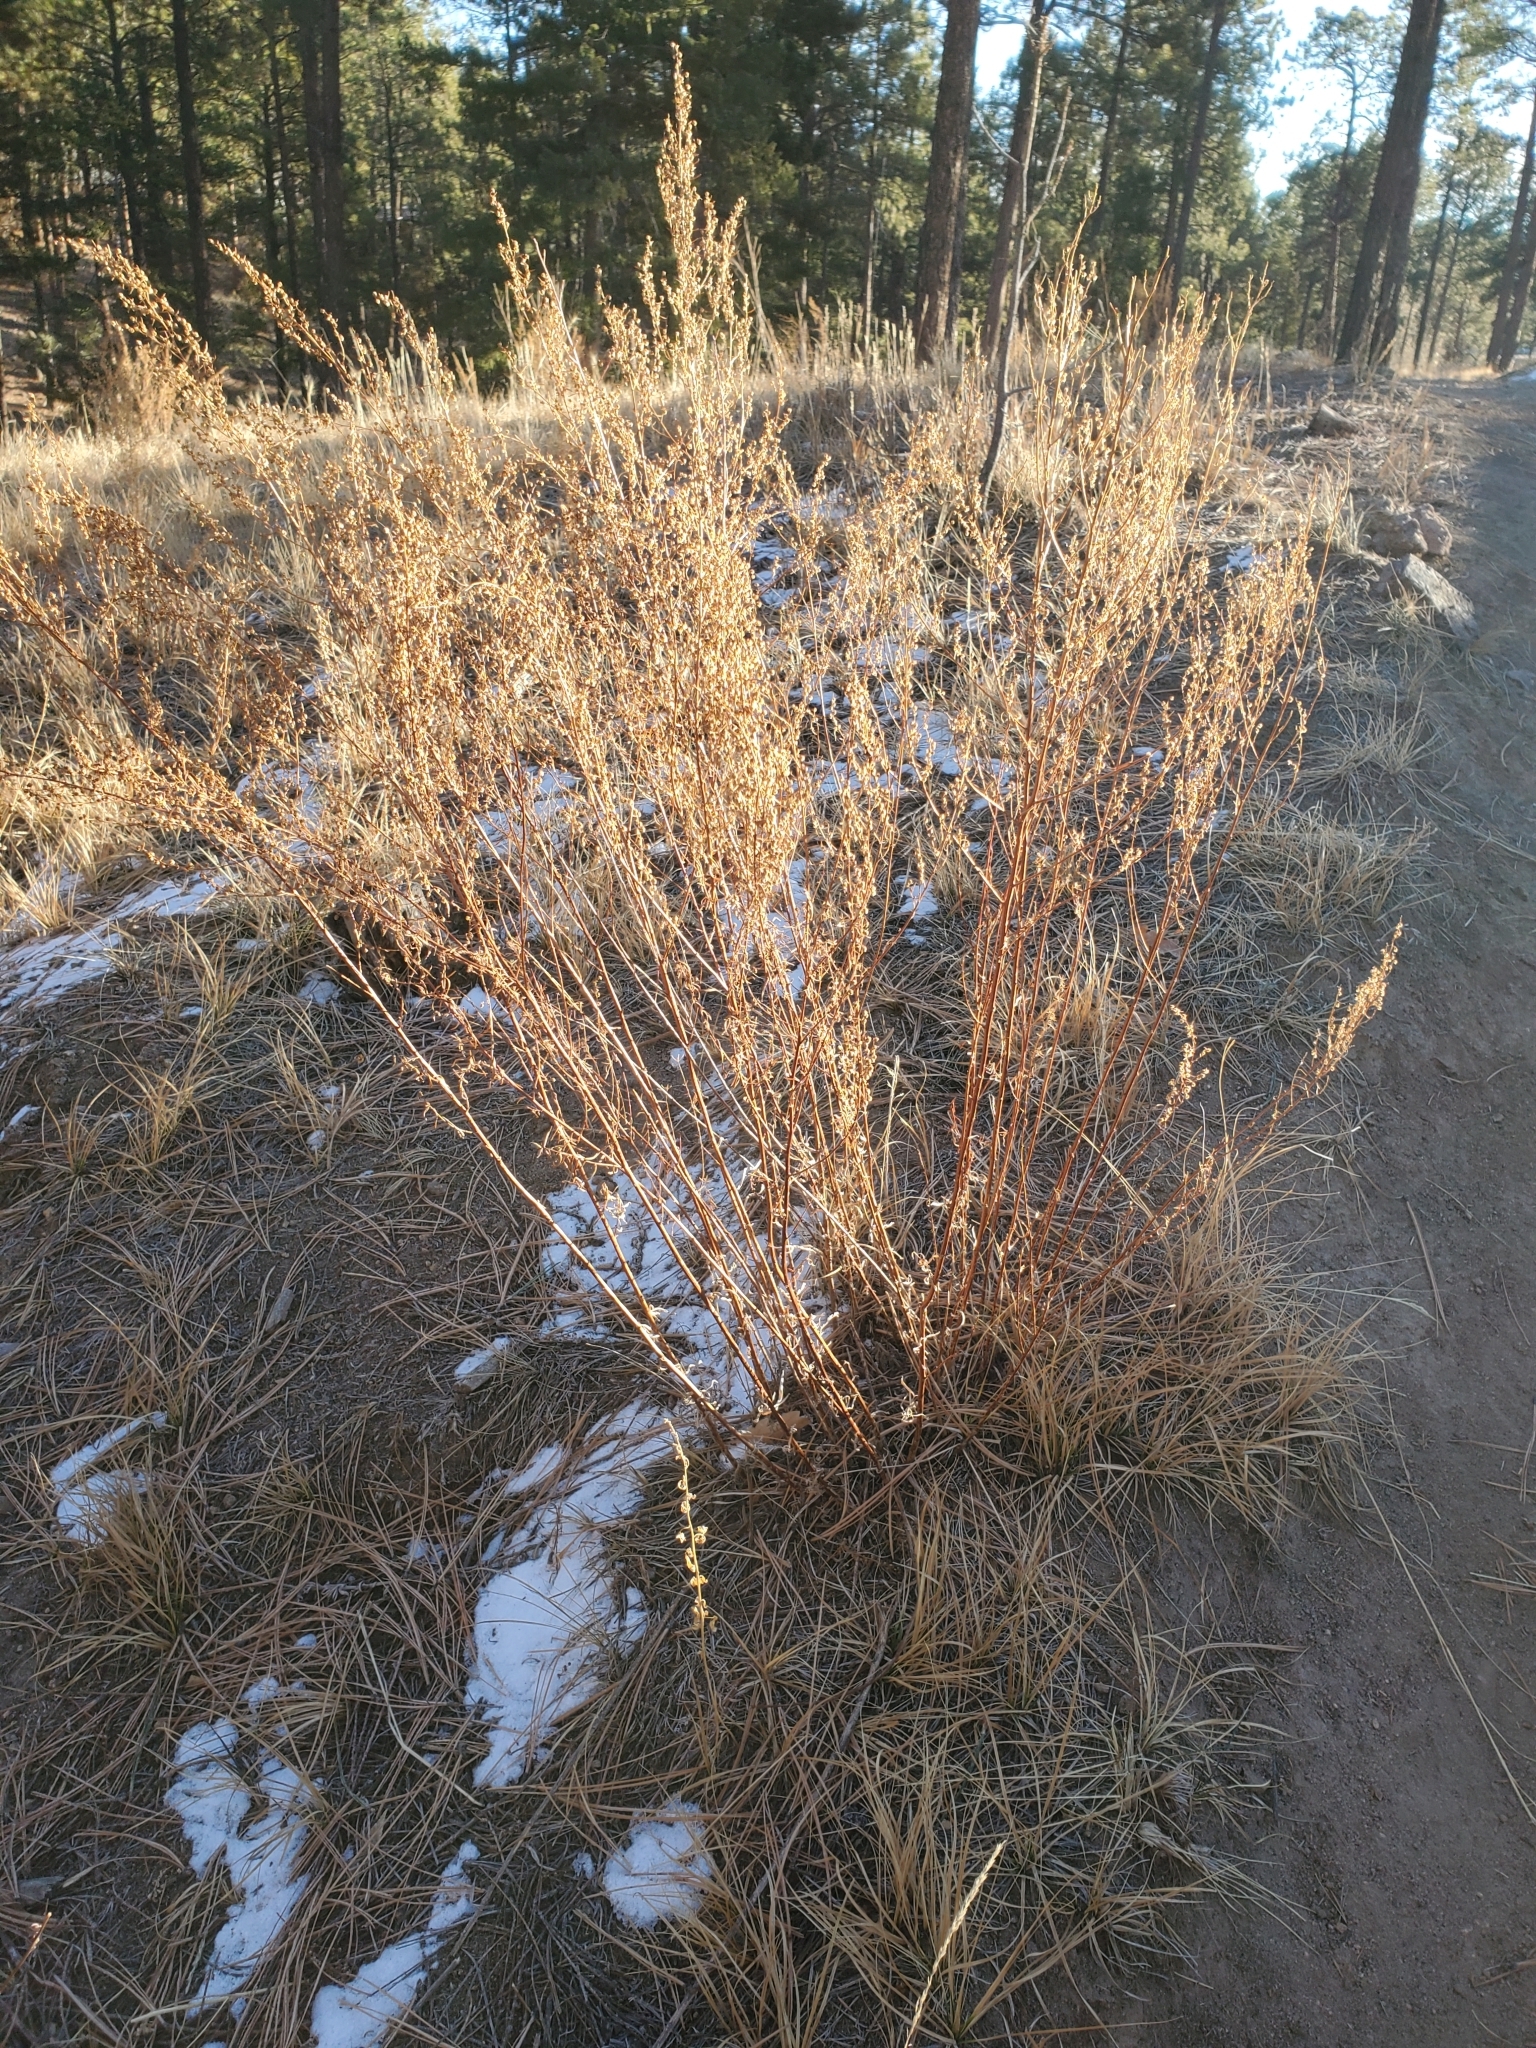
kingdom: Plantae
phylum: Tracheophyta
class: Magnoliopsida
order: Asterales
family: Asteraceae
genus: Artemisia
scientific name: Artemisia dracunculus
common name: Tarragon
